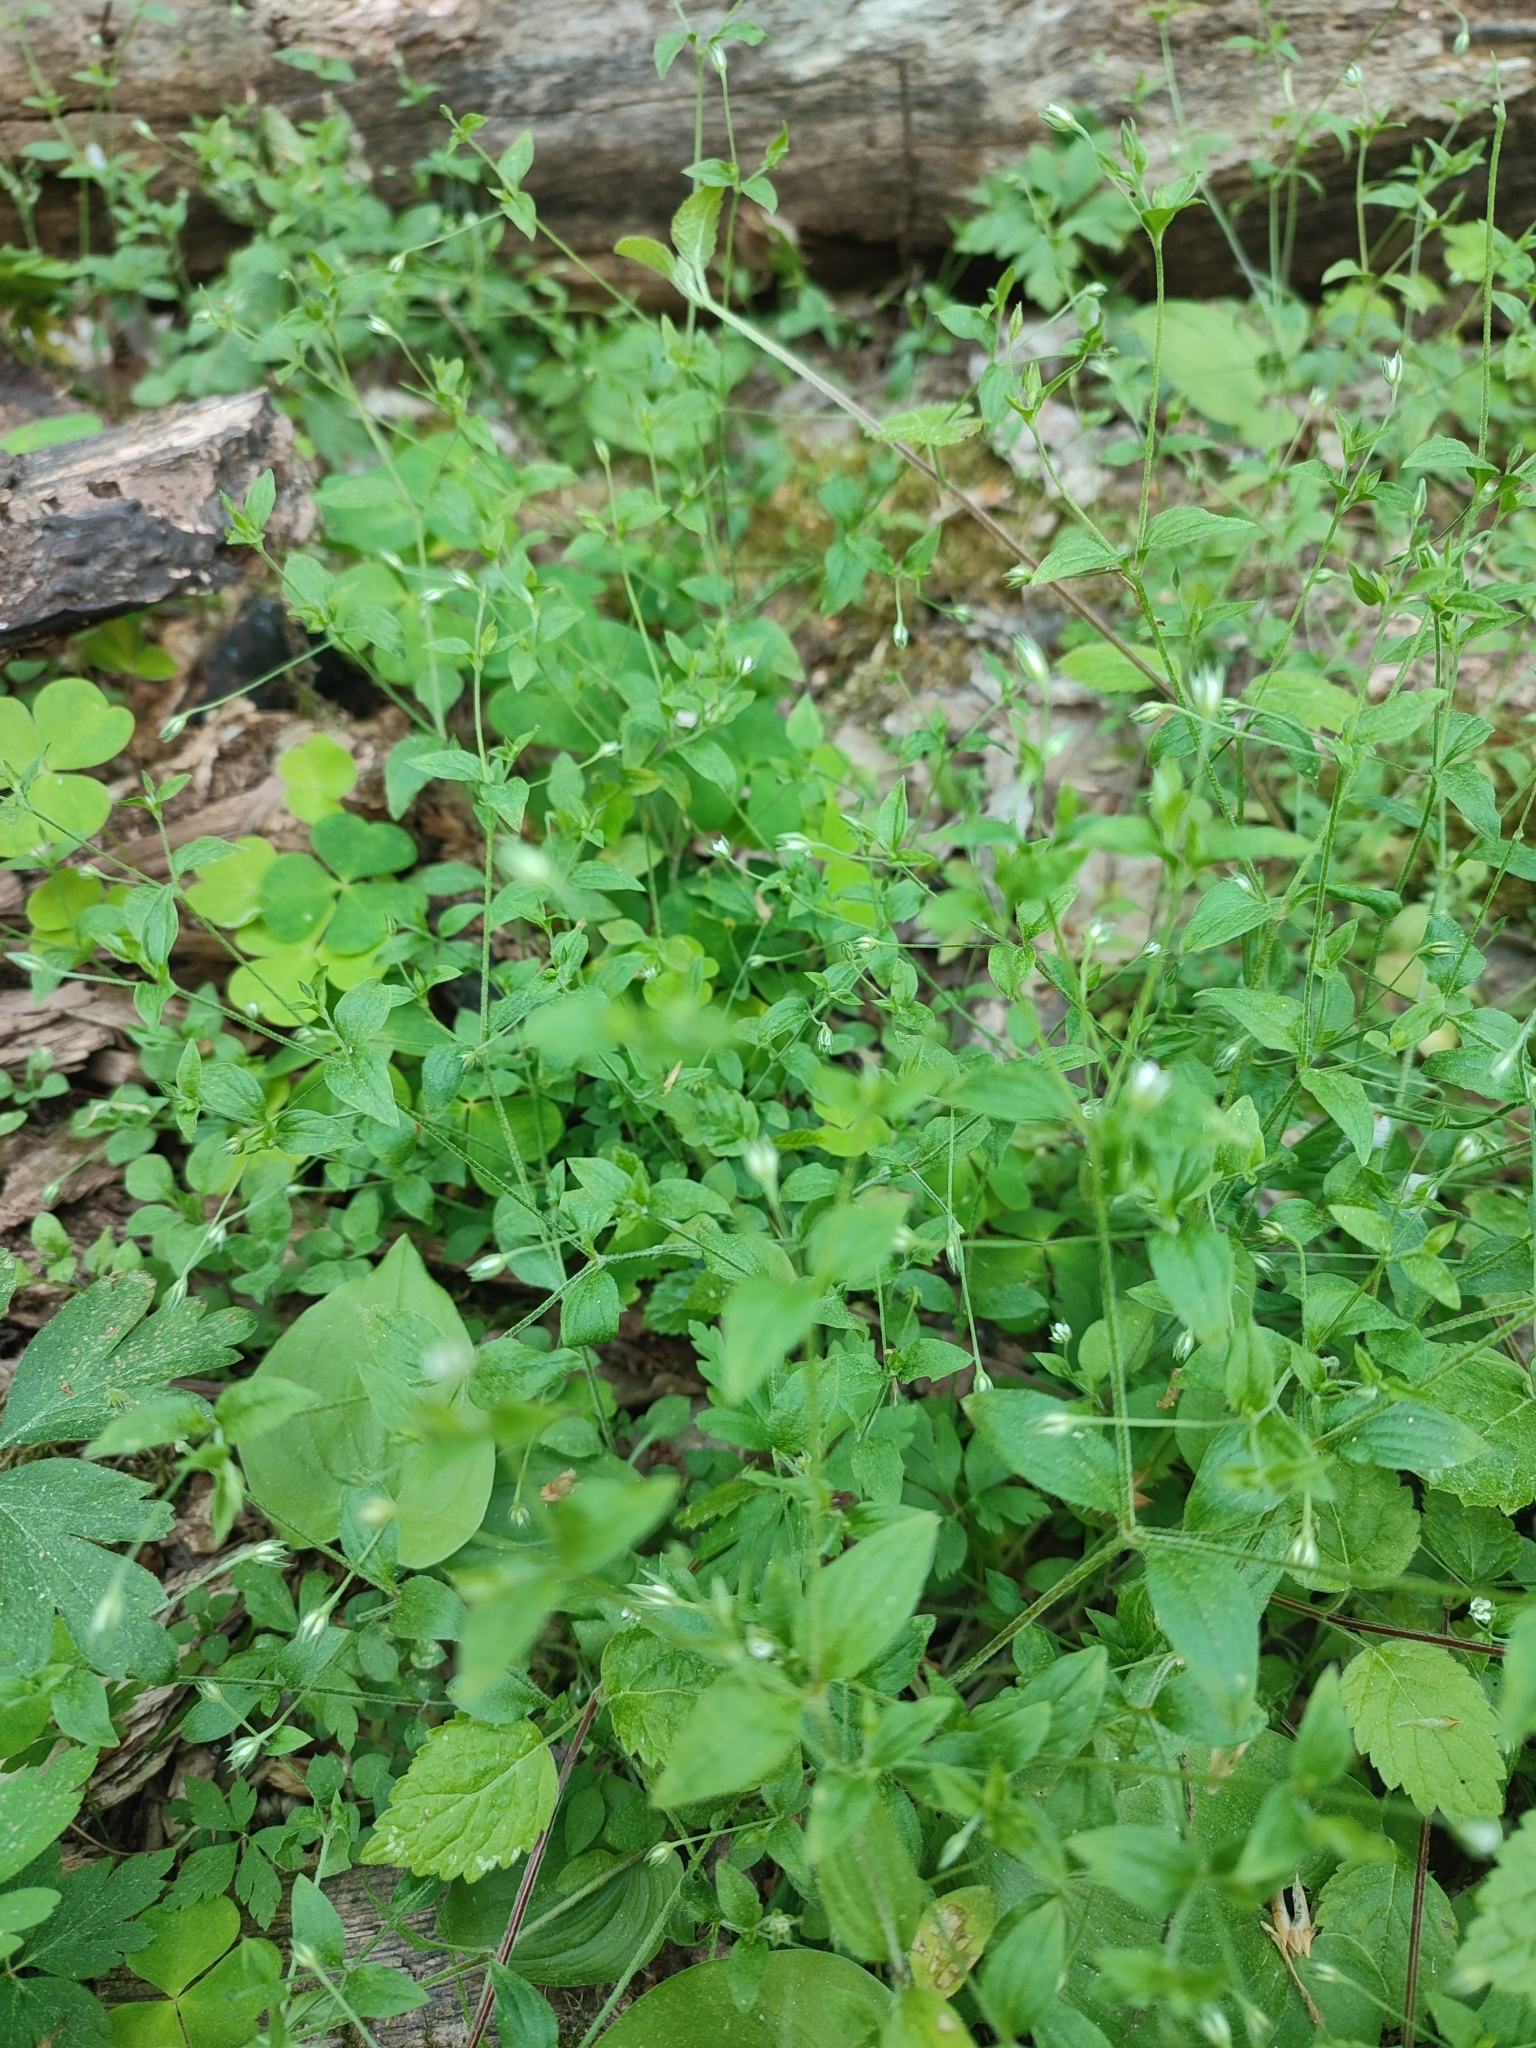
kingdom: Plantae
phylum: Tracheophyta
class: Magnoliopsida
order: Caryophyllales
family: Caryophyllaceae
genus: Moehringia
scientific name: Moehringia trinervia
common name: Three-nerved sandwort
